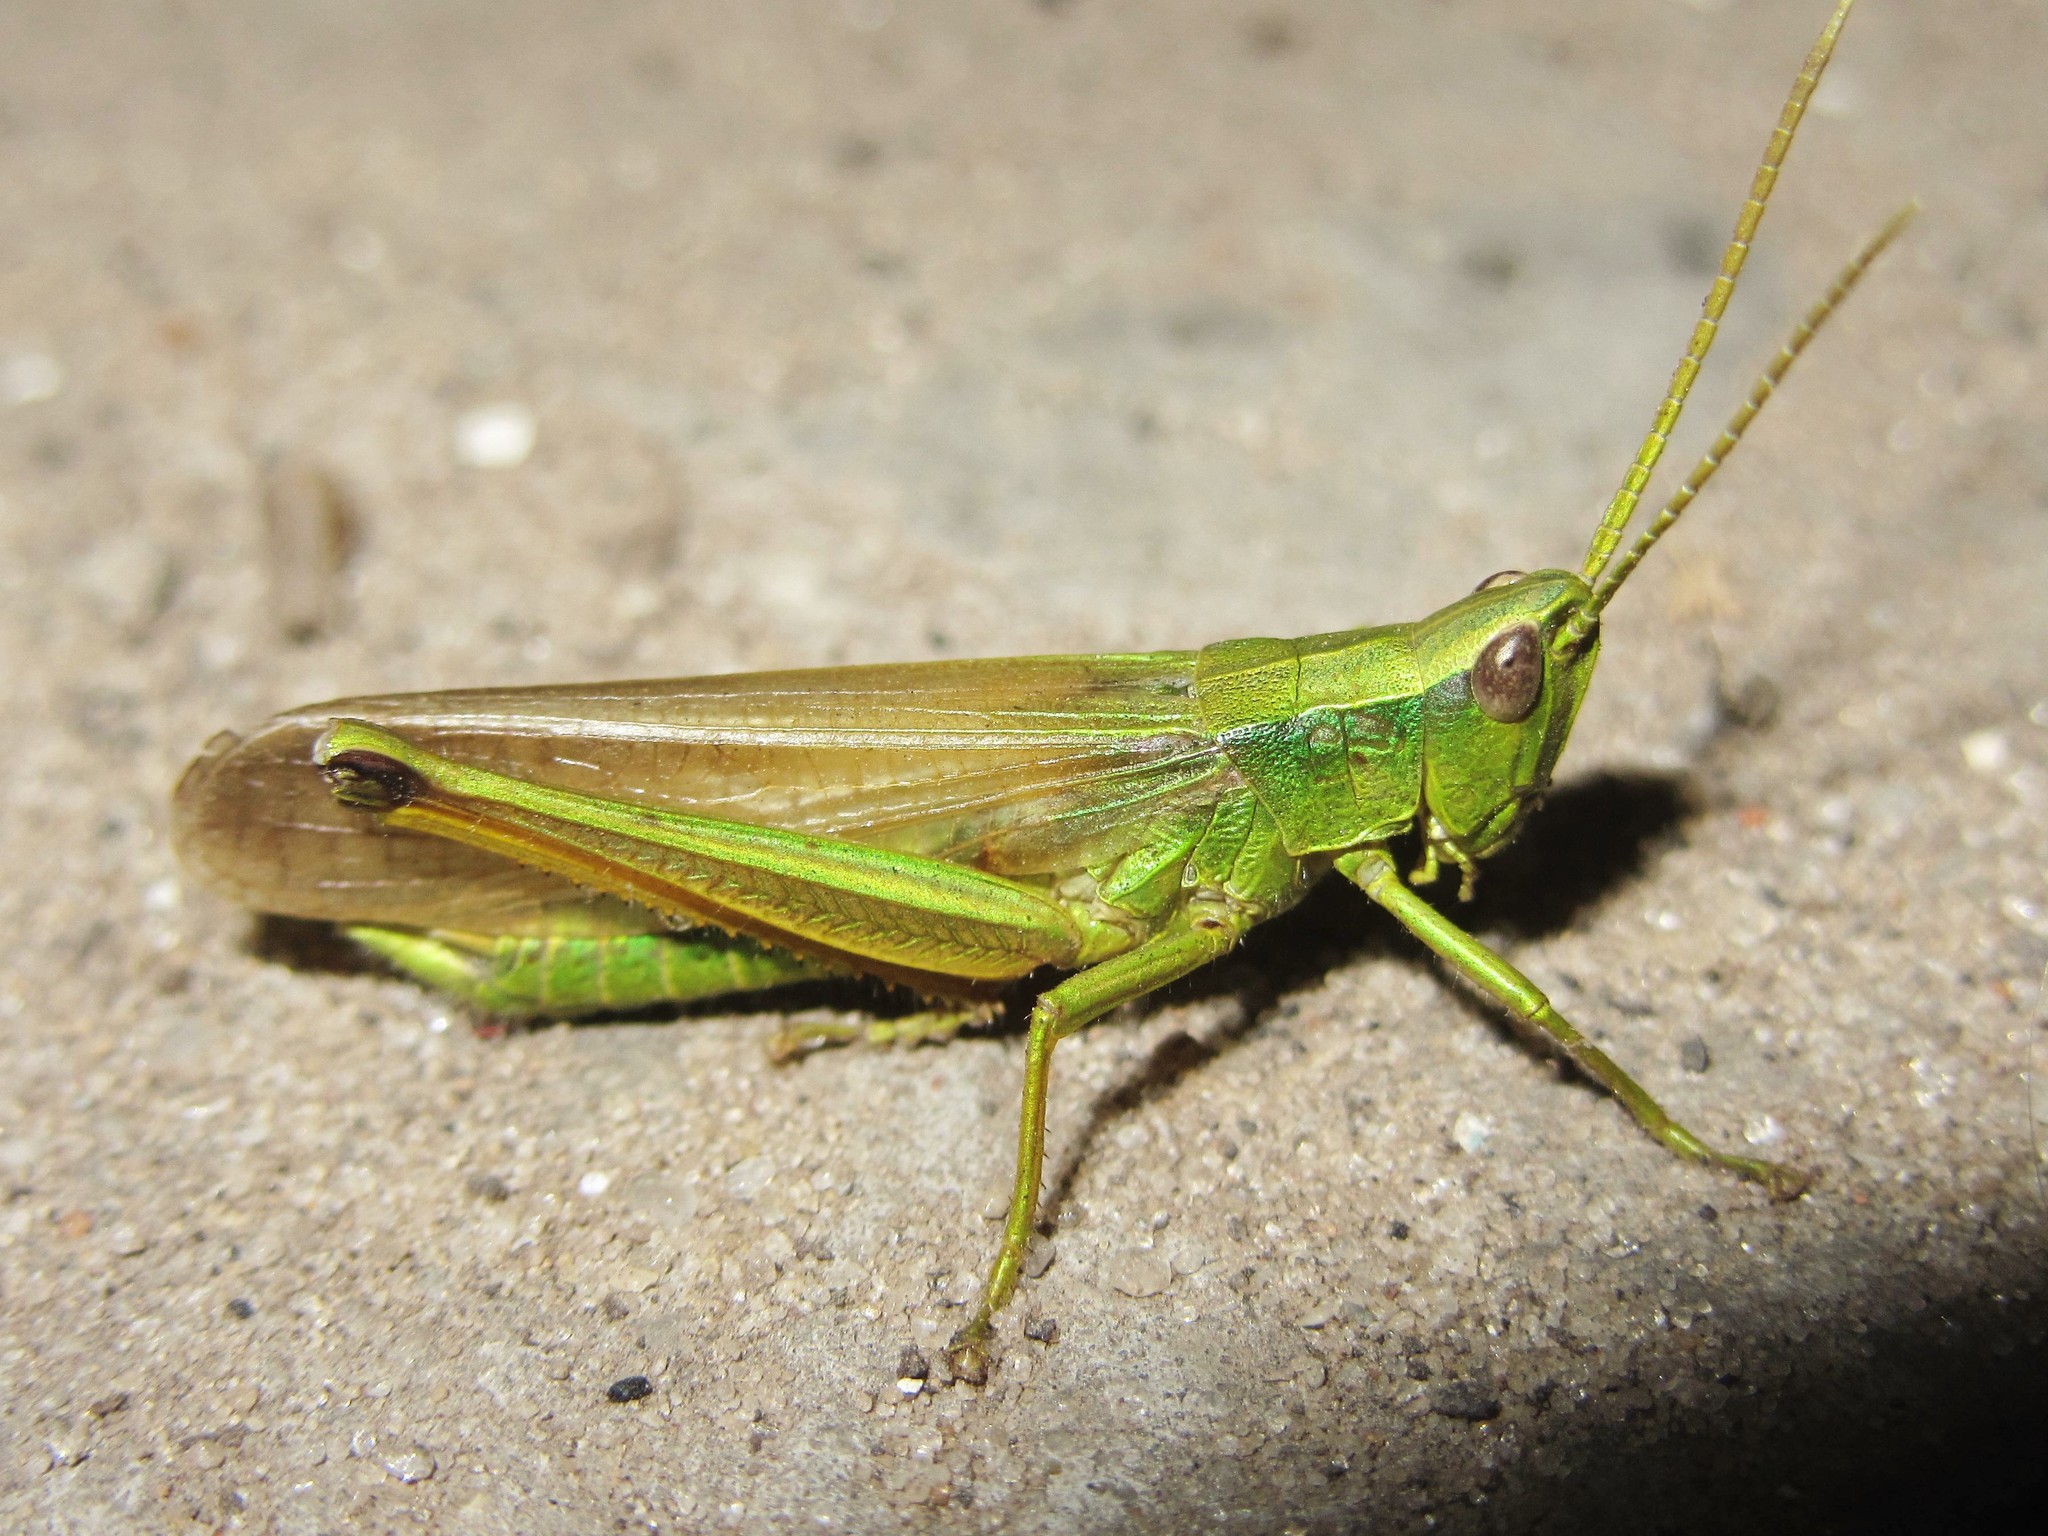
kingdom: Animalia
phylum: Arthropoda
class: Insecta
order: Orthoptera
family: Acrididae
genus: Chrysochraon
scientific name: Chrysochraon dispar
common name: Large gold grasshopper
